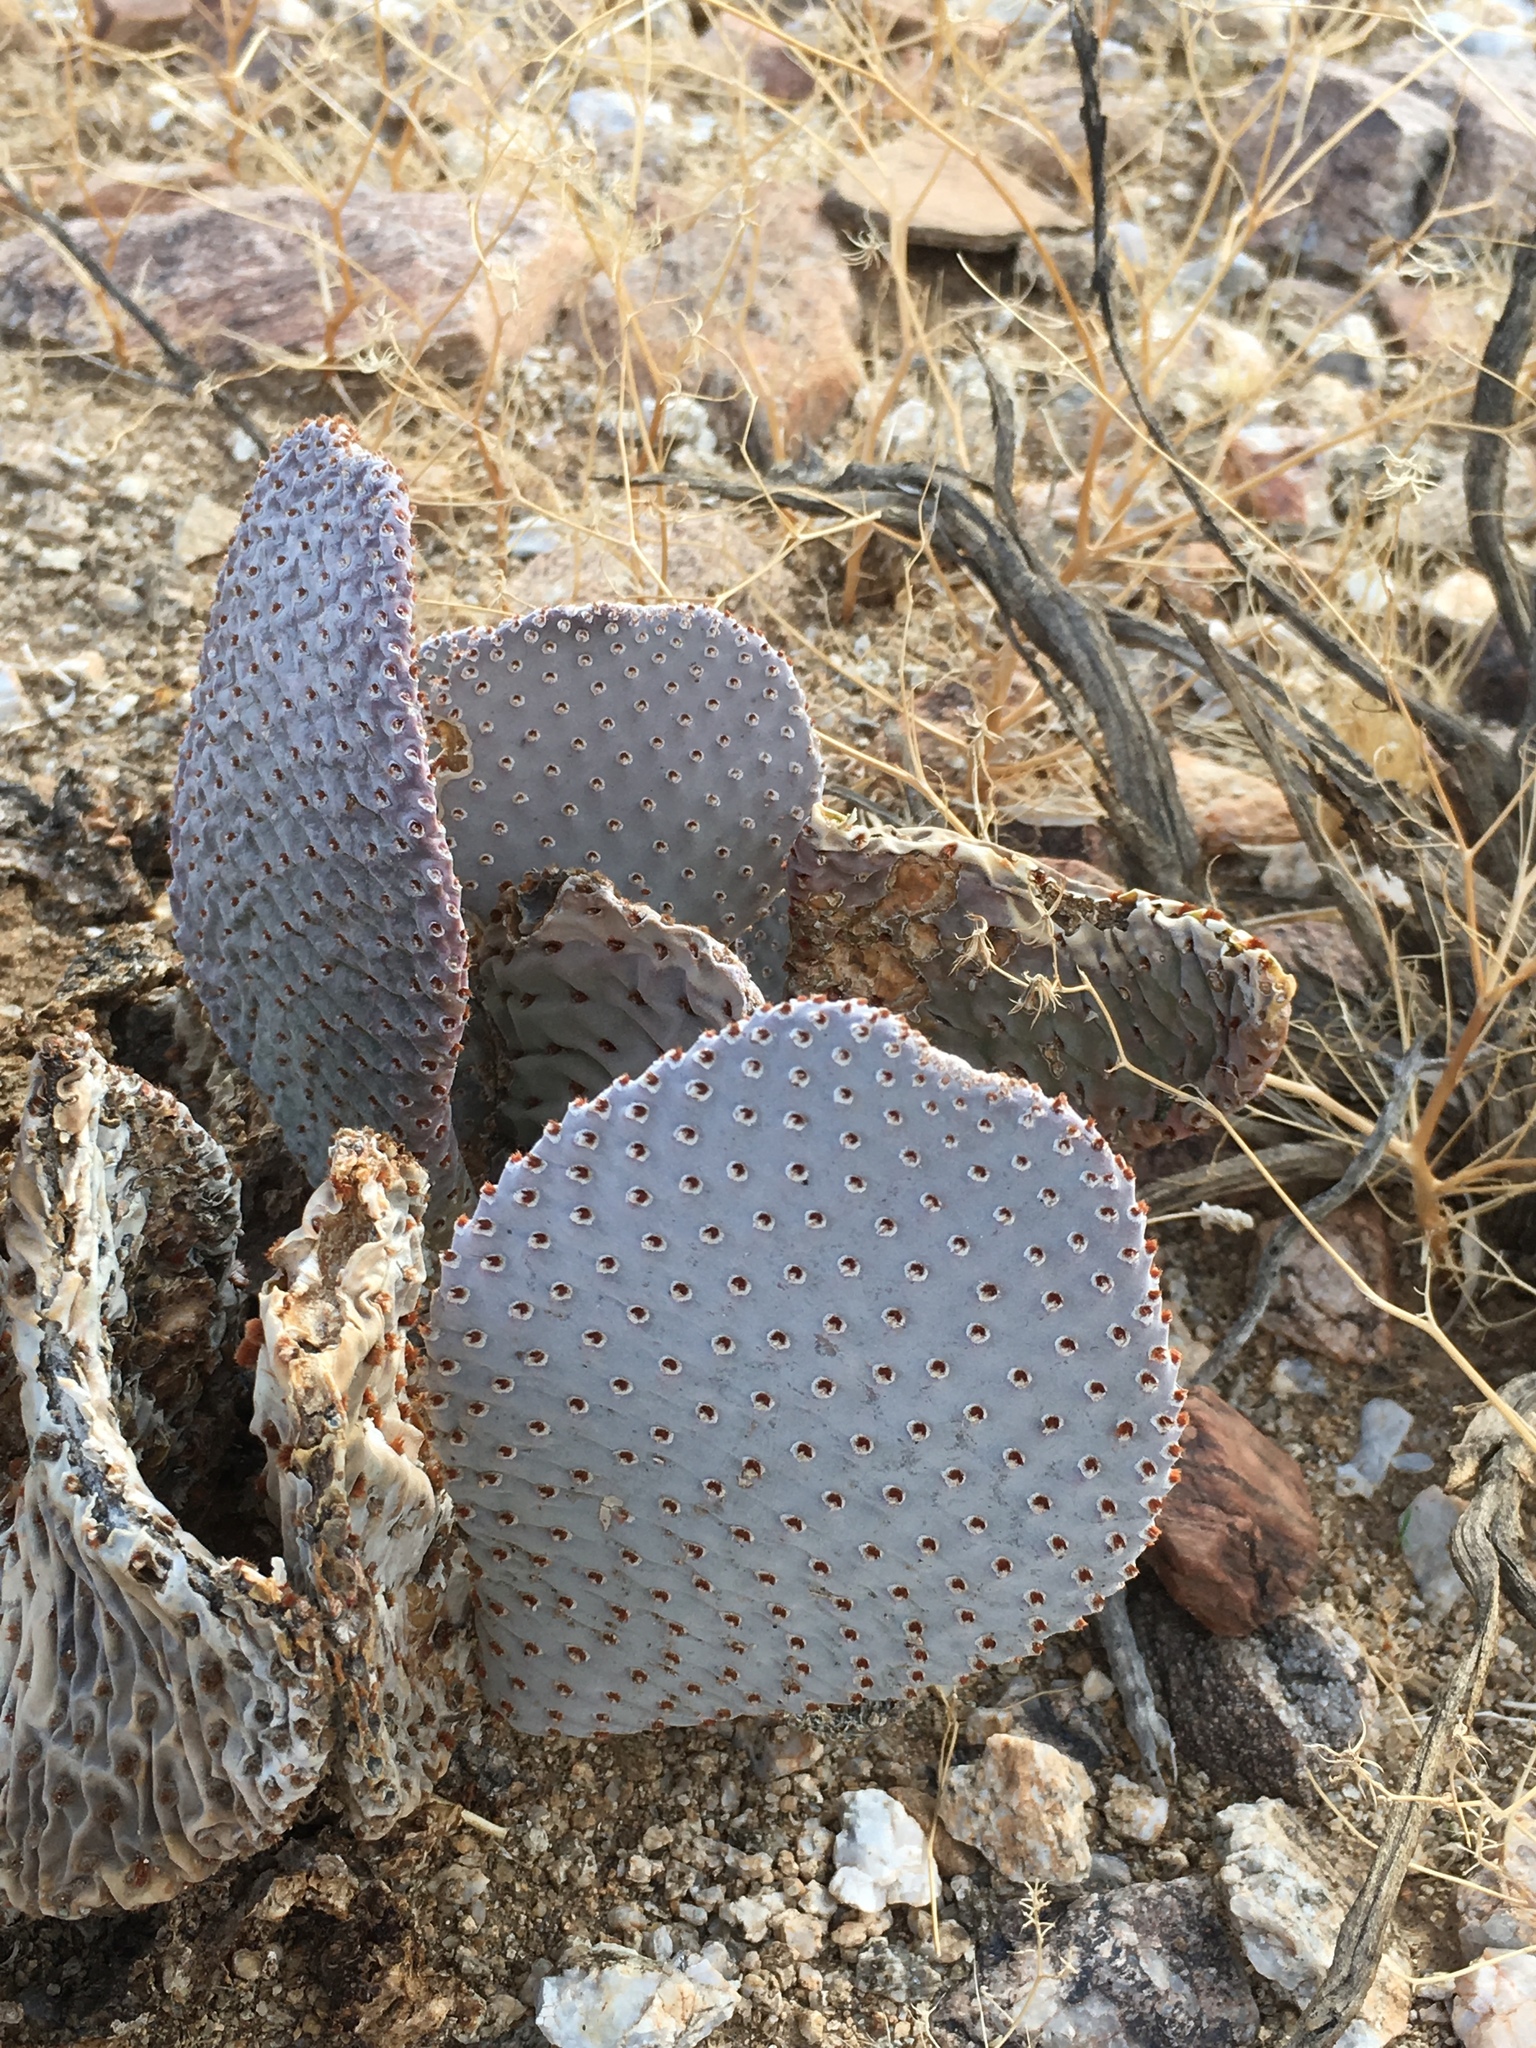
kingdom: Plantae
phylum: Tracheophyta
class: Magnoliopsida
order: Caryophyllales
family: Cactaceae
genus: Opuntia
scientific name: Opuntia basilaris
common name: Beavertail prickly-pear
